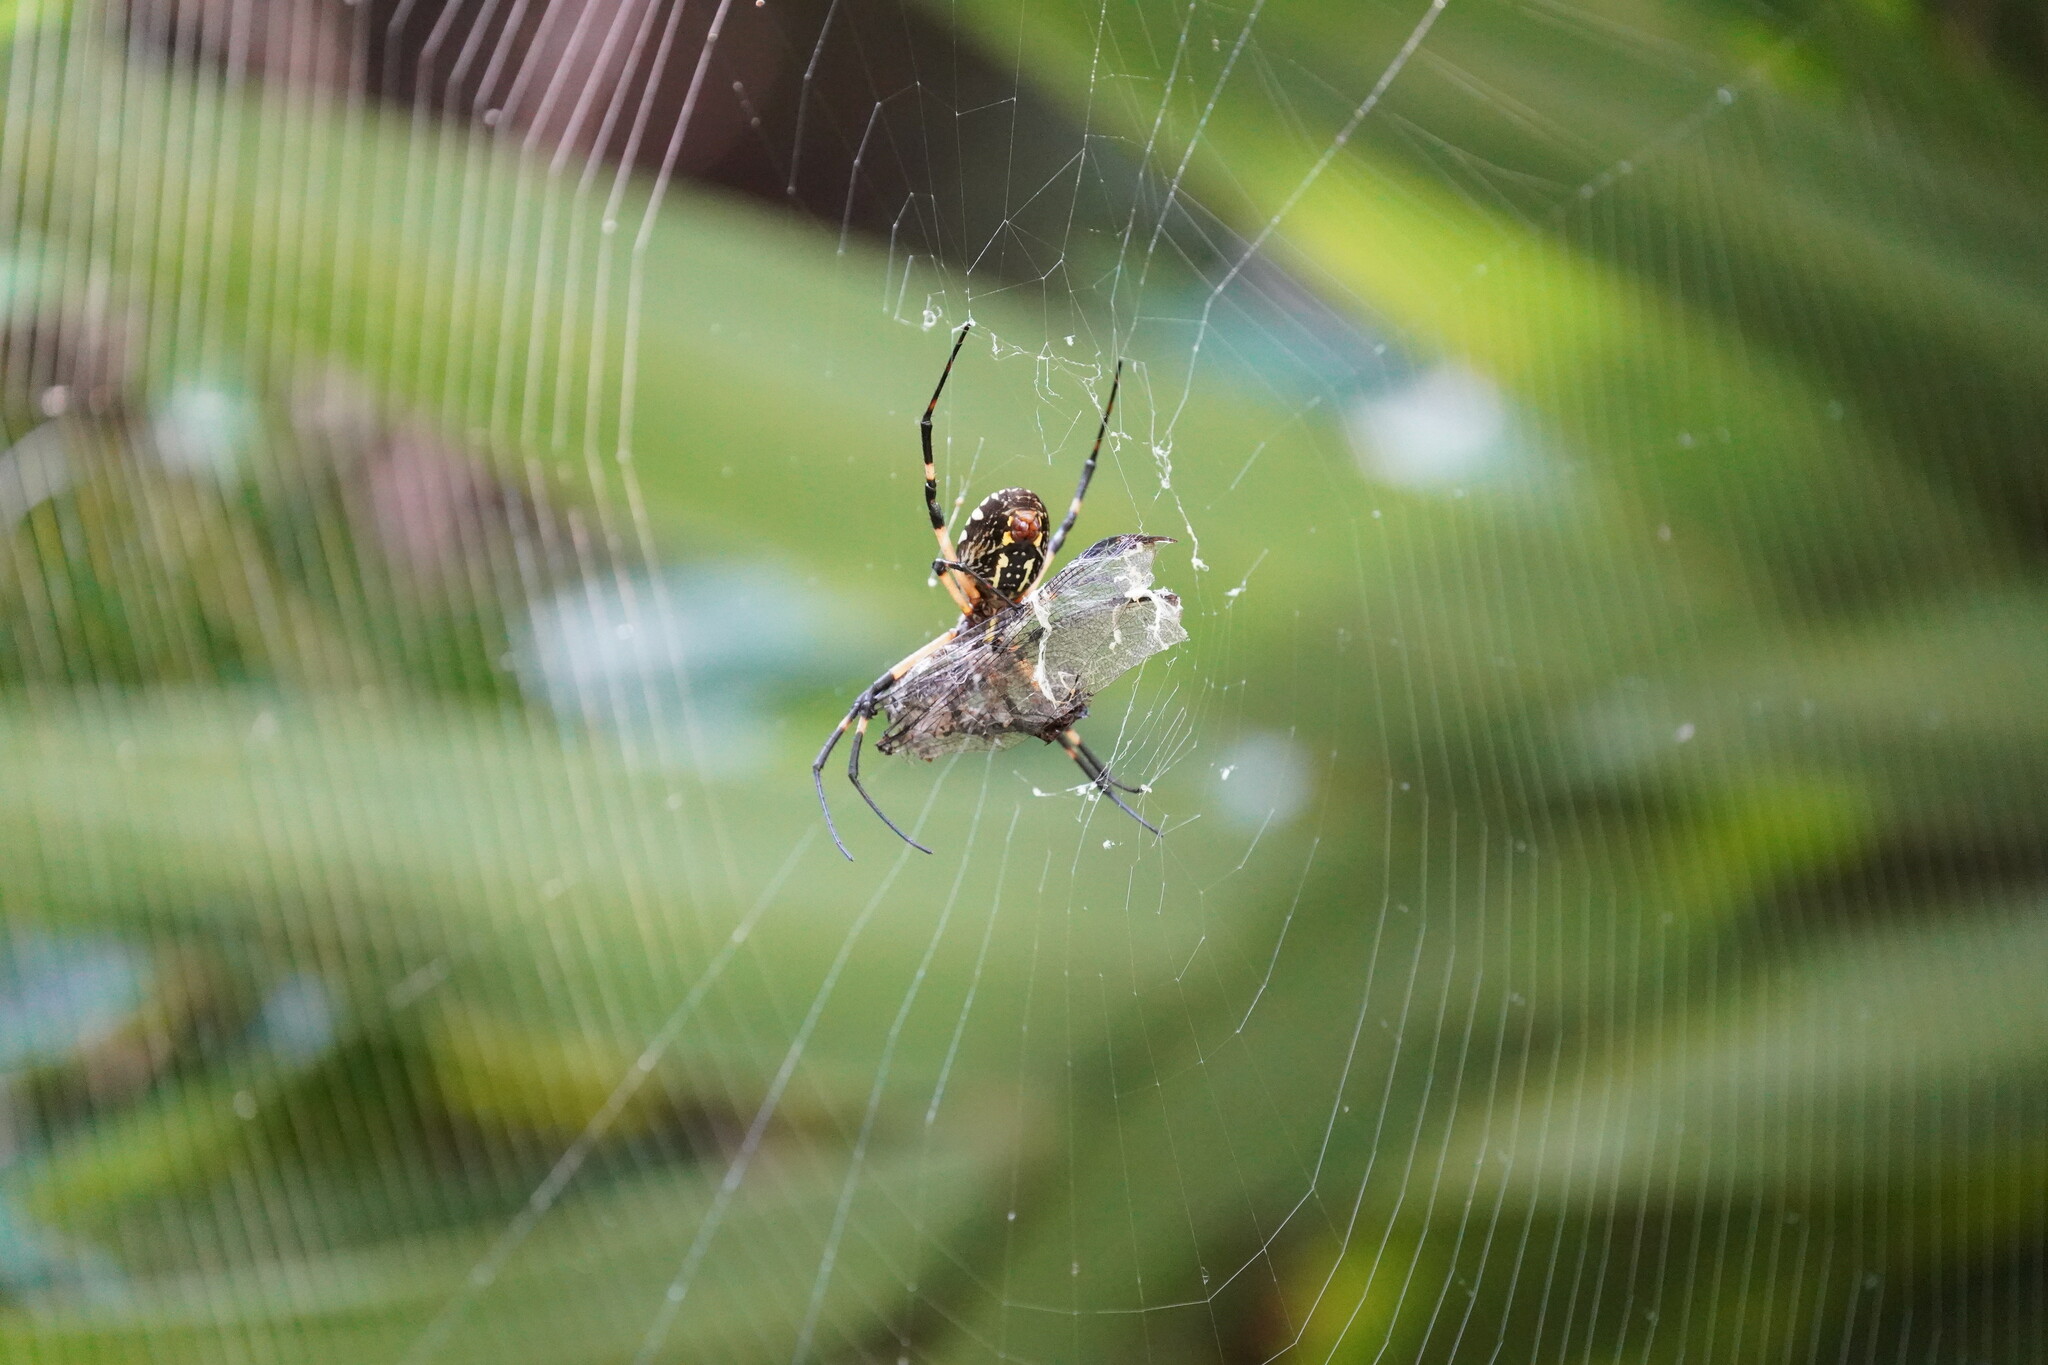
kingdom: Animalia
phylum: Arthropoda
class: Arachnida
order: Araneae
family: Araneidae
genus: Argiope
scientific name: Argiope aurantia
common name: Orb weavers
